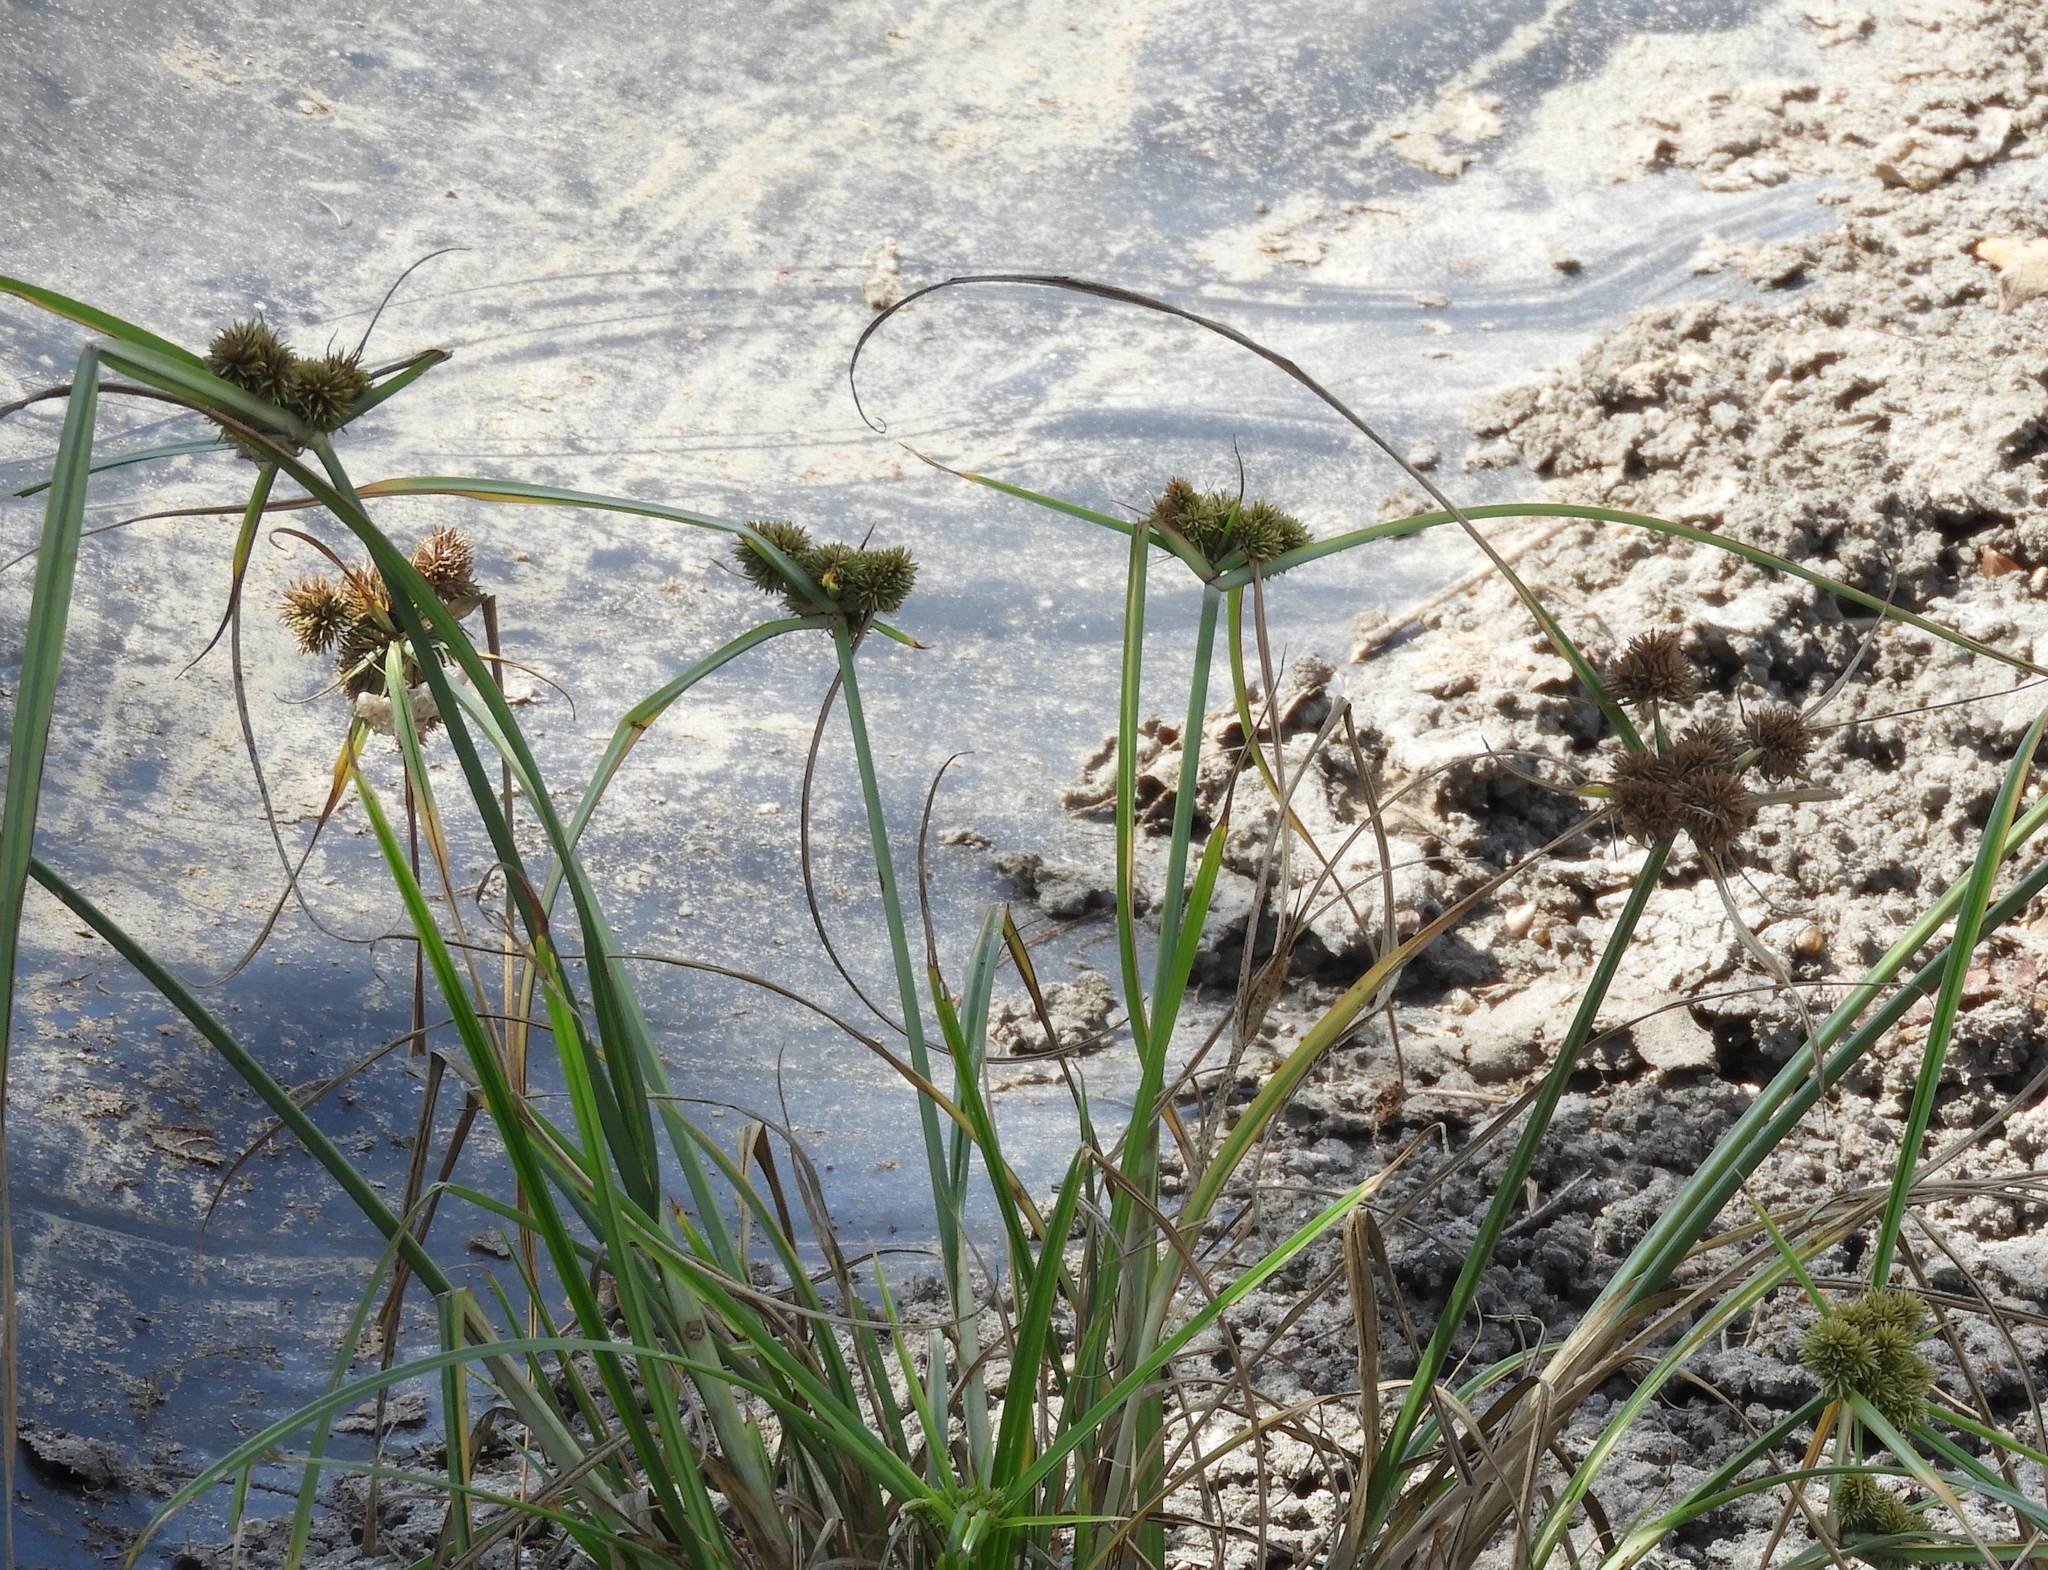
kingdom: Plantae
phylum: Tracheophyta
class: Liliopsida
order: Poales
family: Cyperaceae
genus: Cyperus
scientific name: Cyperus odoratus
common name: Fragrant flatsedge
